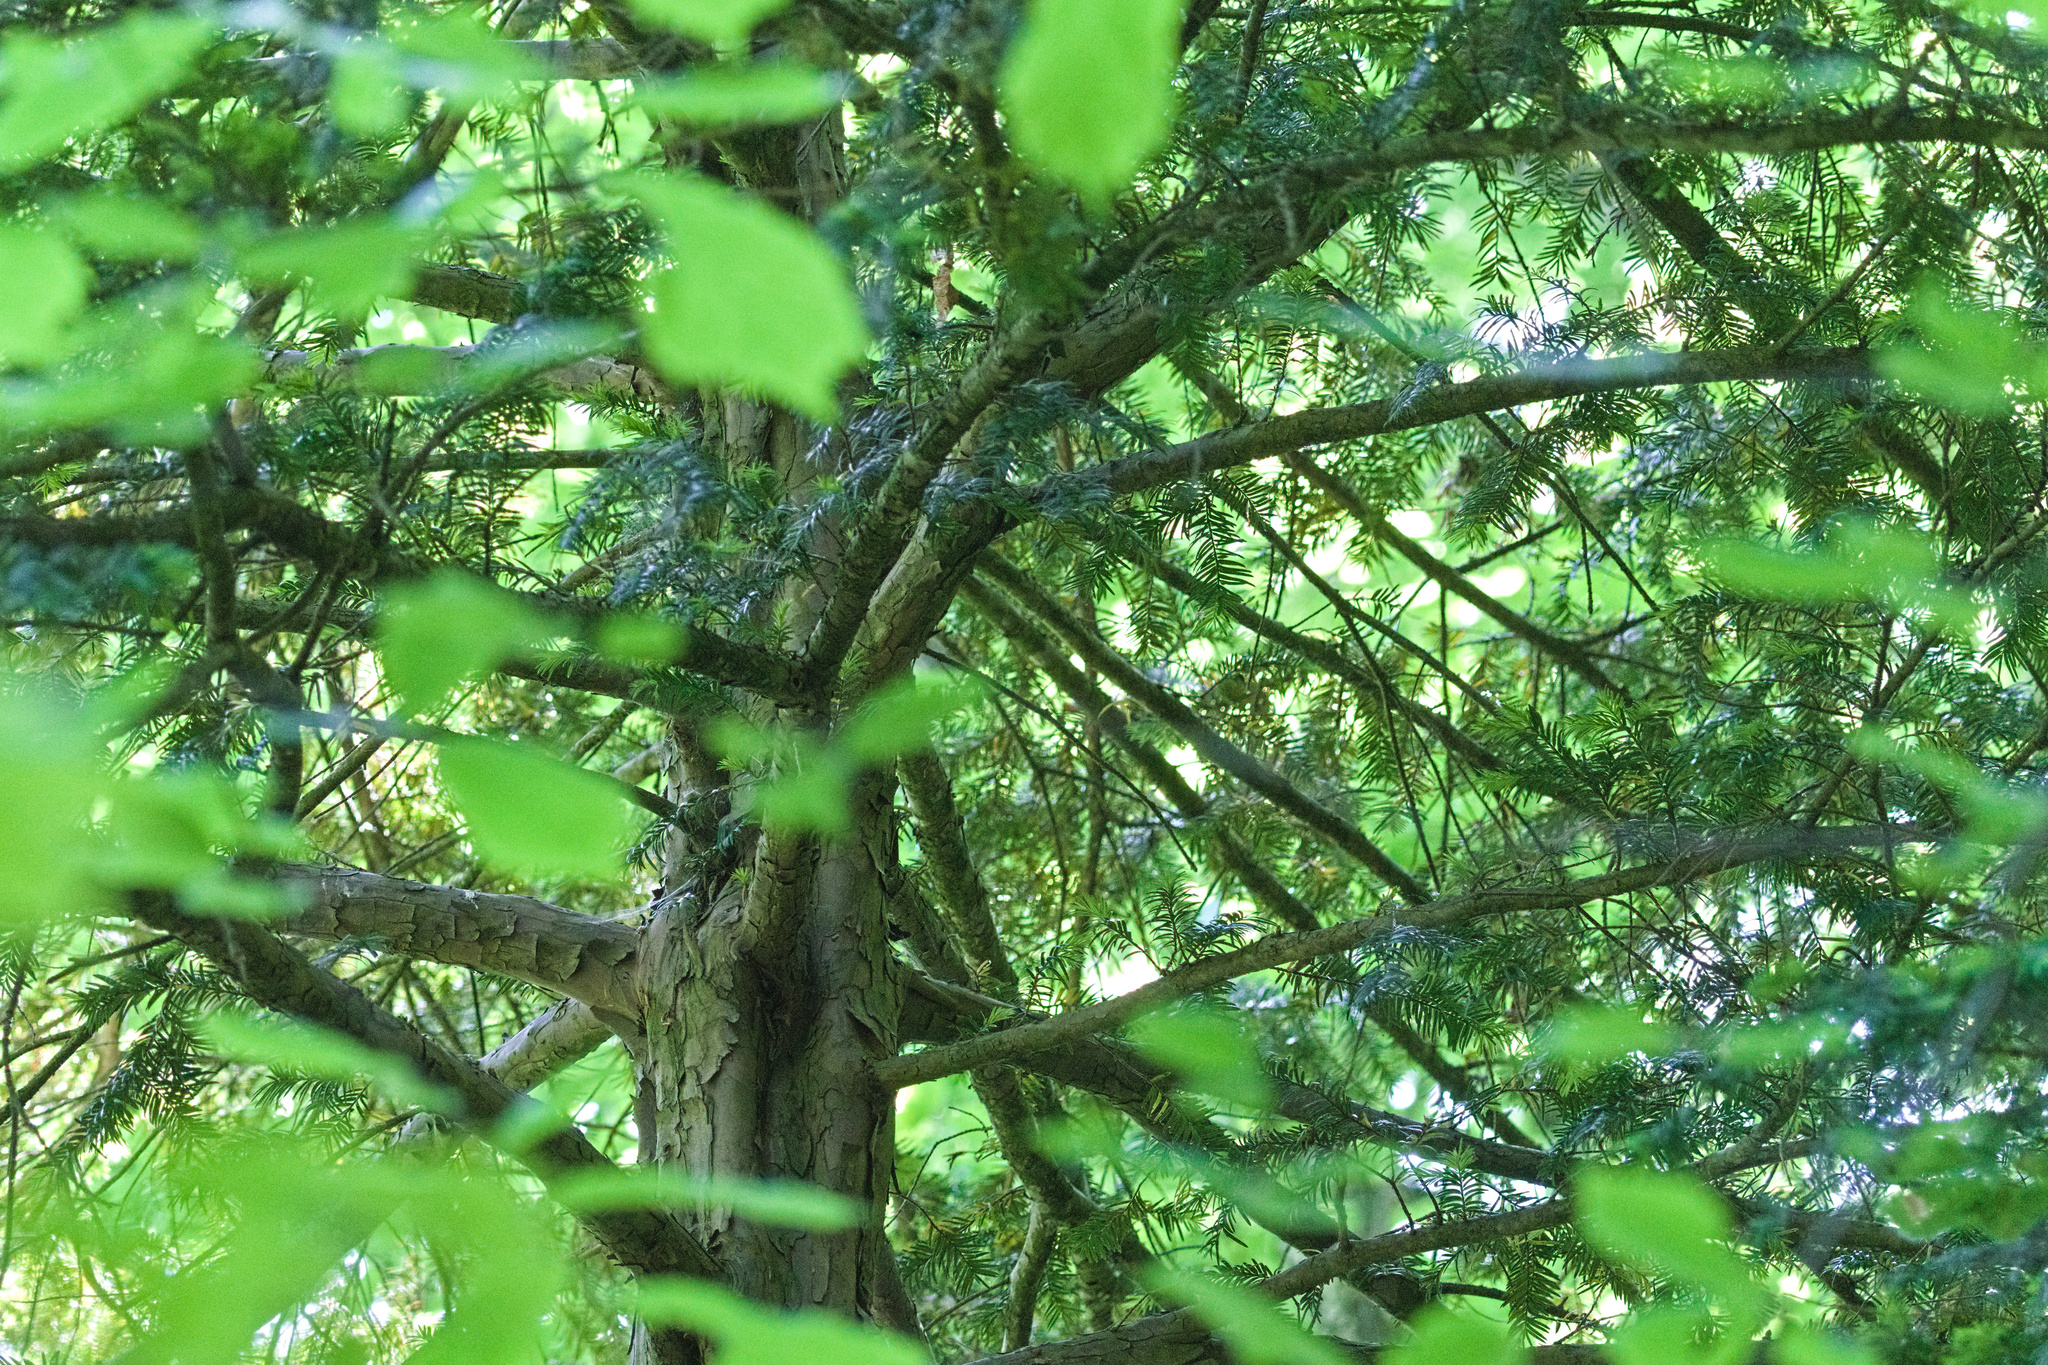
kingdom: Plantae
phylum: Tracheophyta
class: Pinopsida
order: Pinales
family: Taxaceae
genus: Taxus
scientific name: Taxus baccata
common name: Yew
